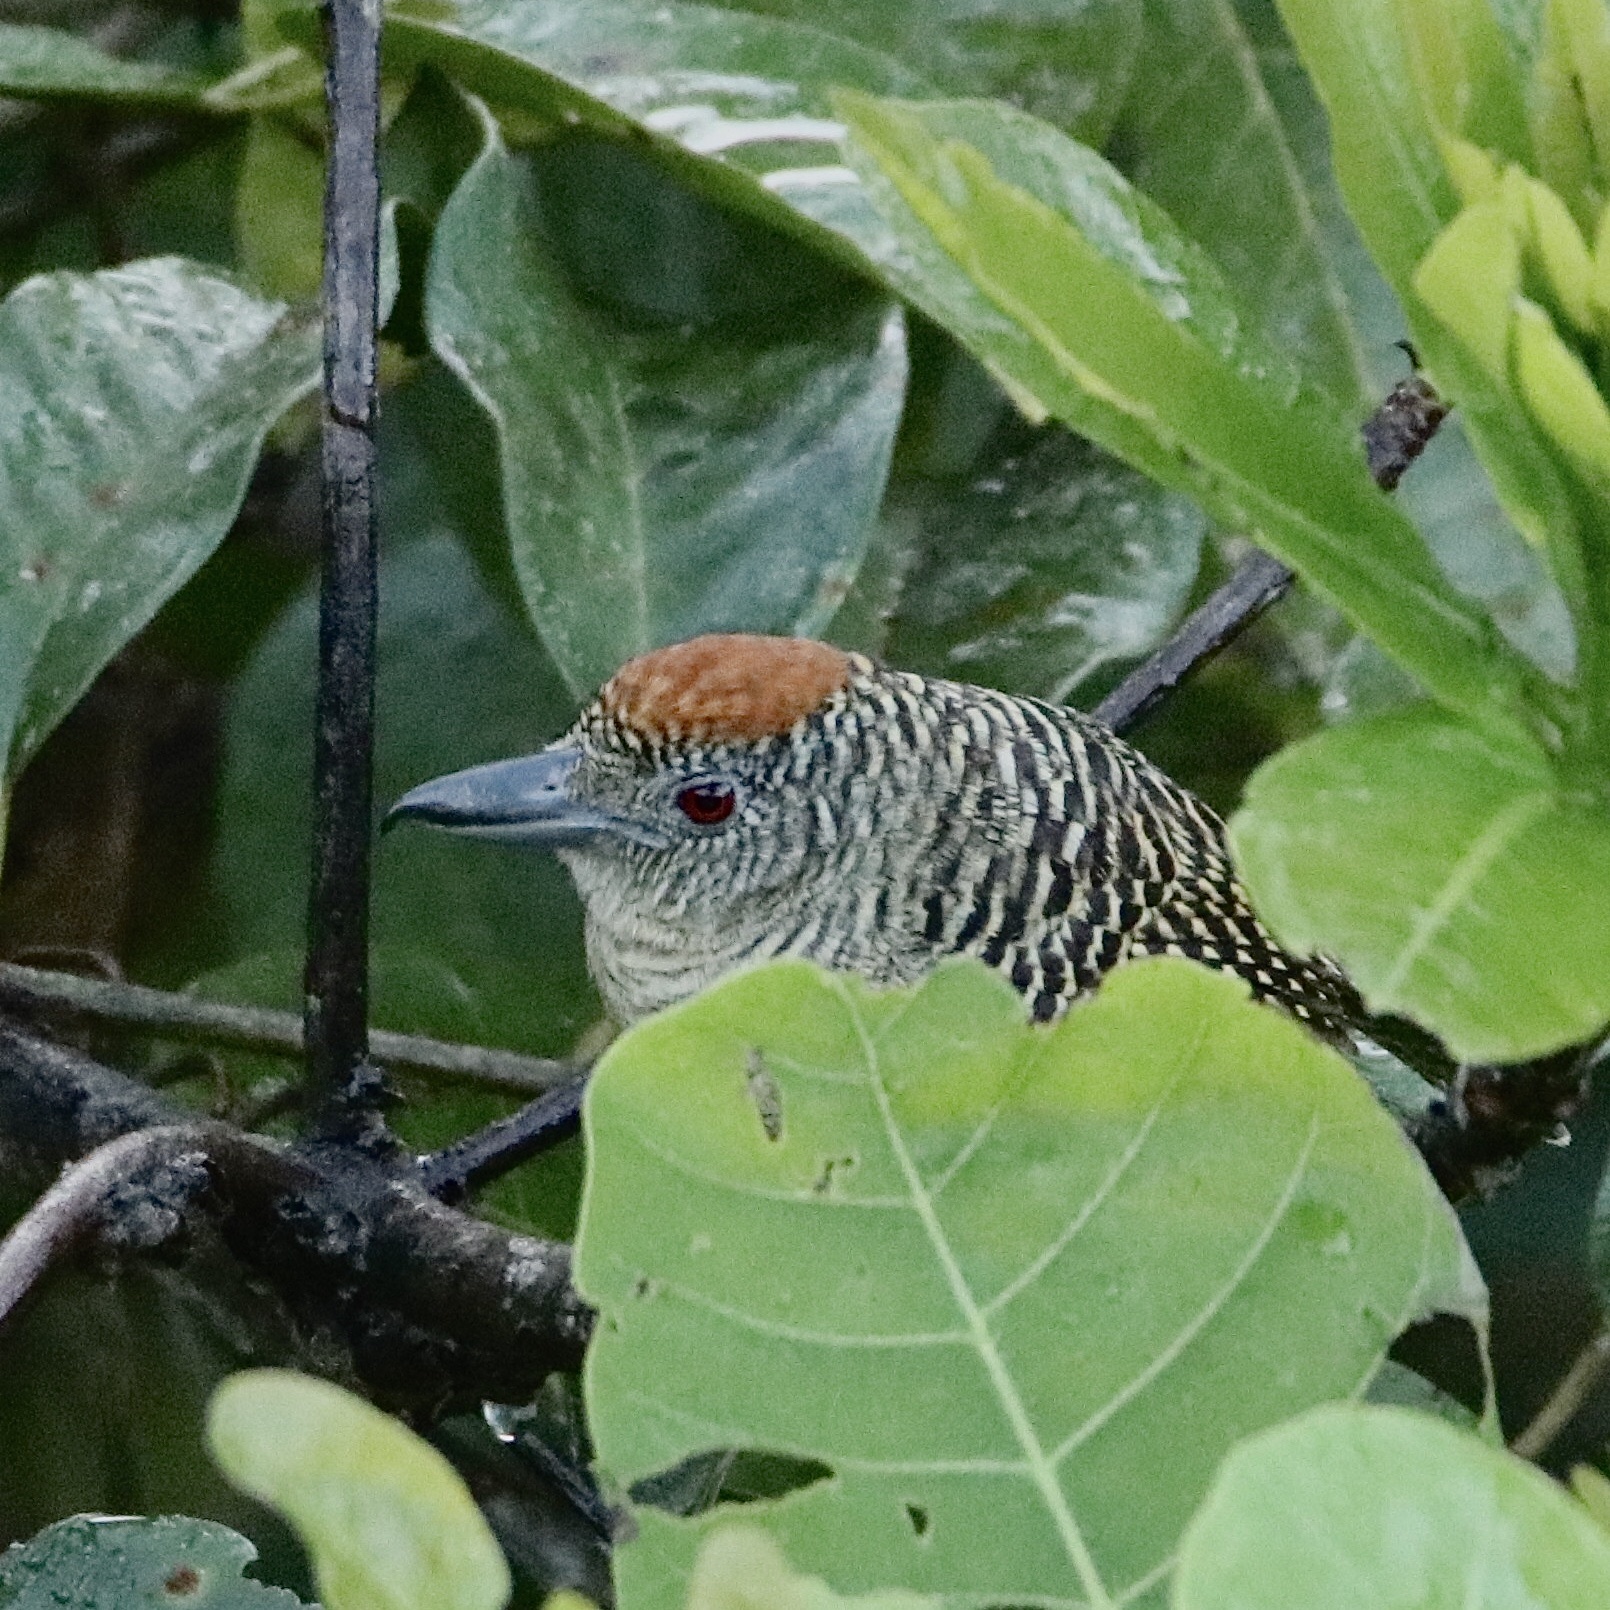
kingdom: Animalia
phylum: Chordata
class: Aves
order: Passeriformes
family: Thamnophilidae
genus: Cymbilaimus
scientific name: Cymbilaimus lineatus
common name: Fasciated antshrike
